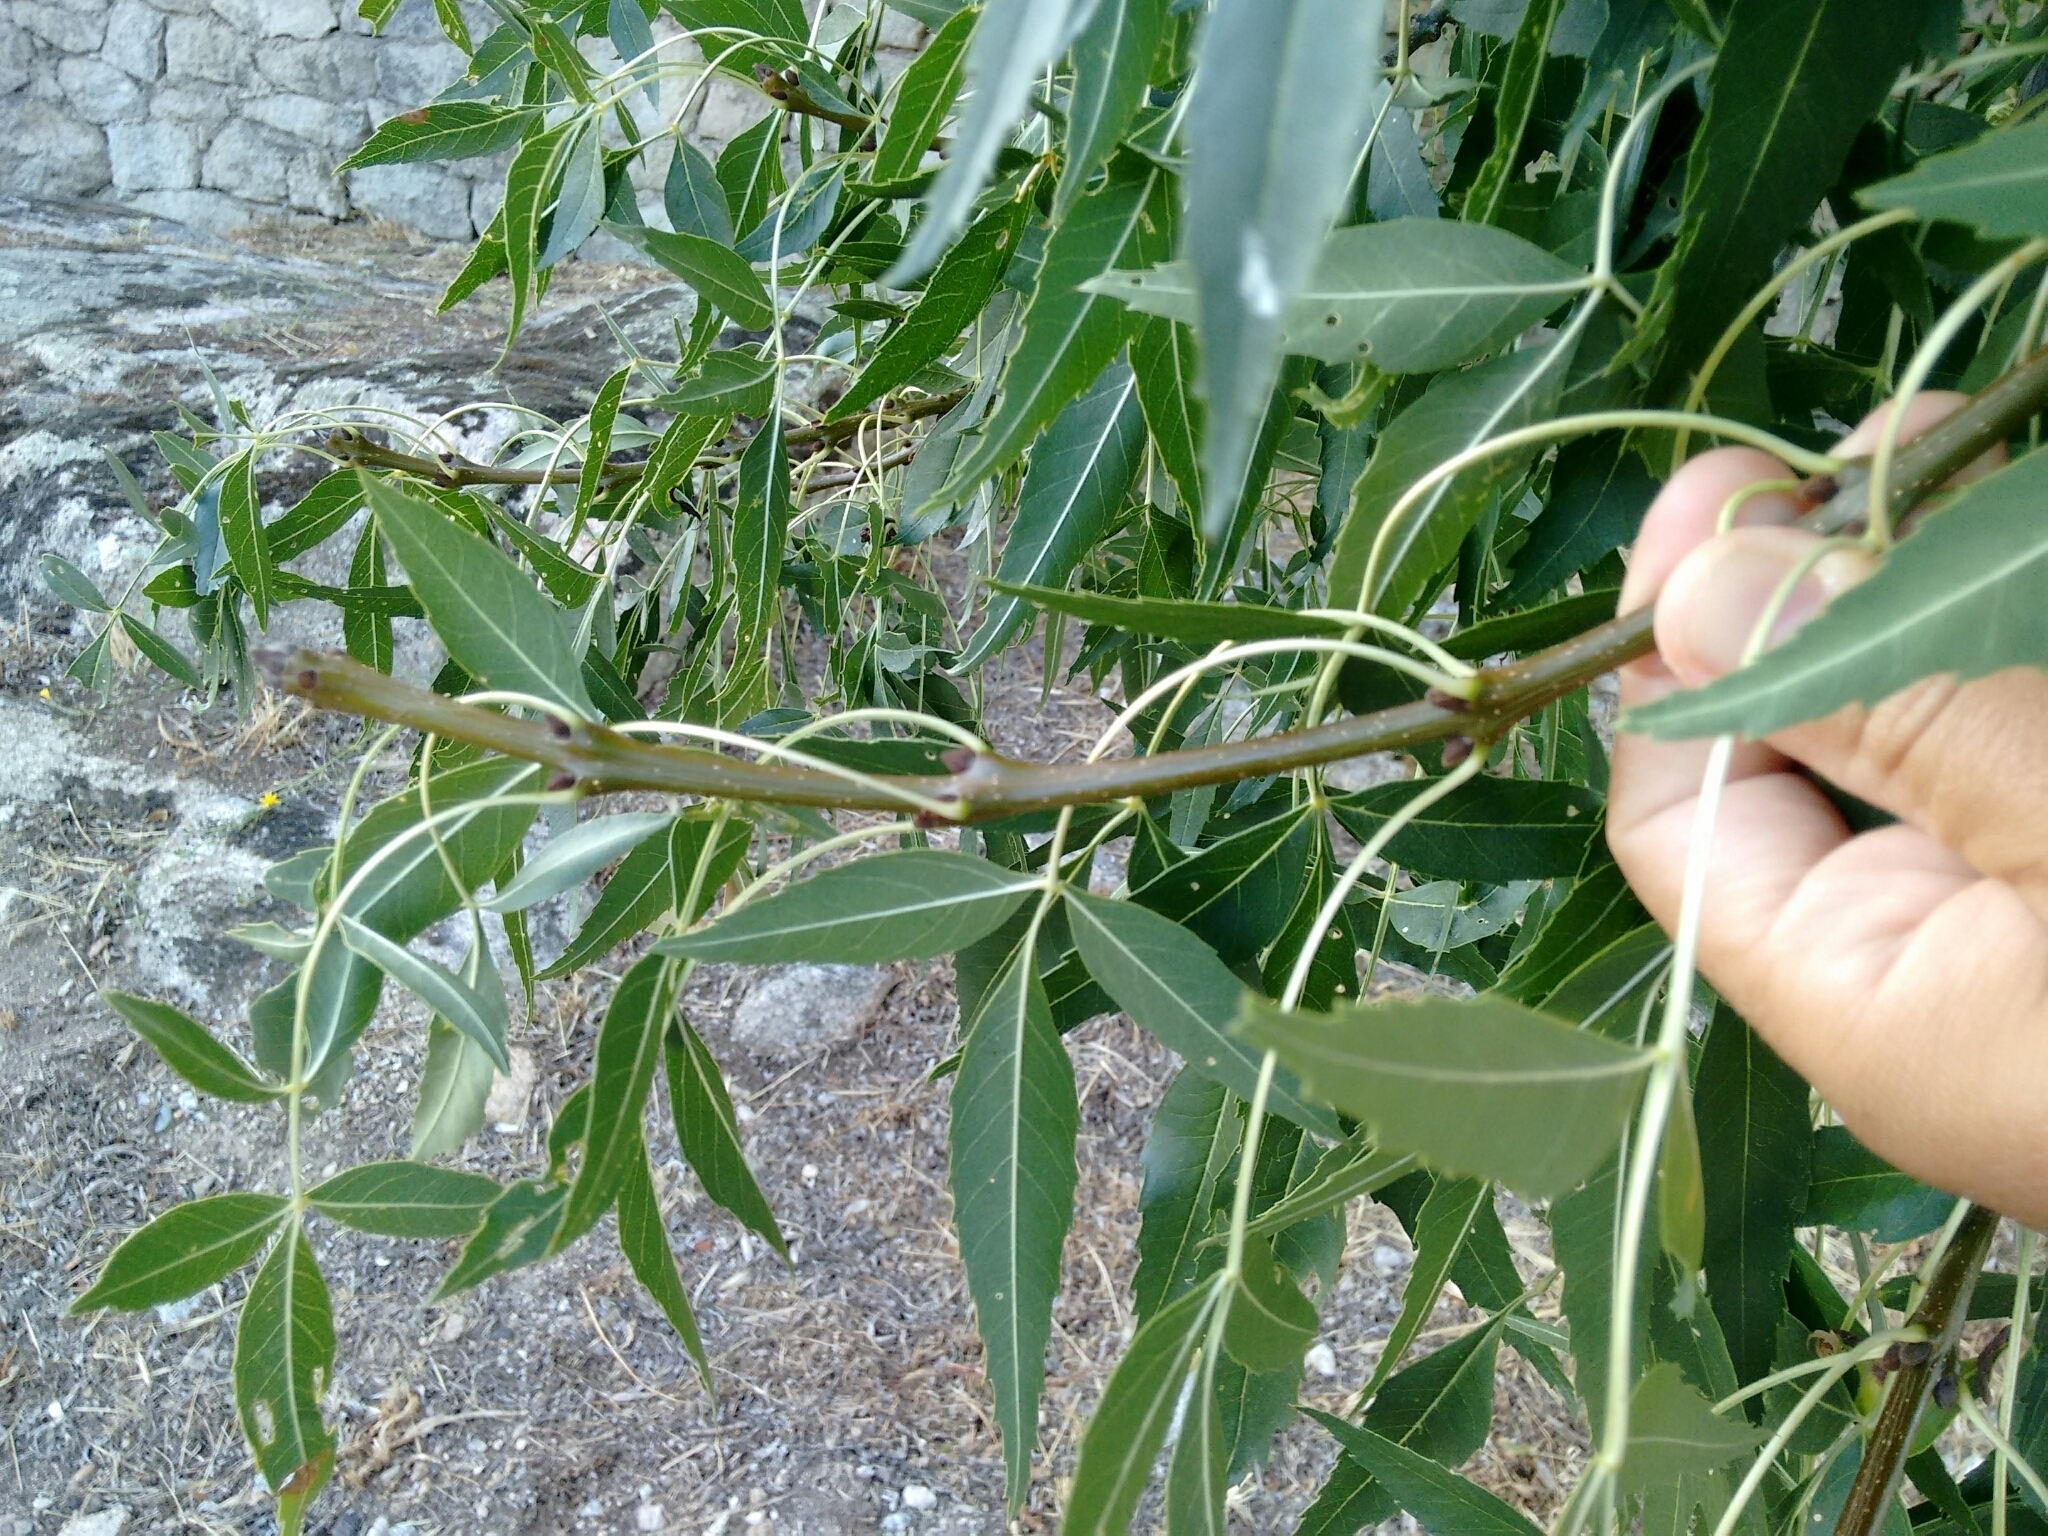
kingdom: Plantae
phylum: Tracheophyta
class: Magnoliopsida
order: Lamiales
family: Oleaceae
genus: Fraxinus
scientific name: Fraxinus angustifolia
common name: Narrow-leafed ash
